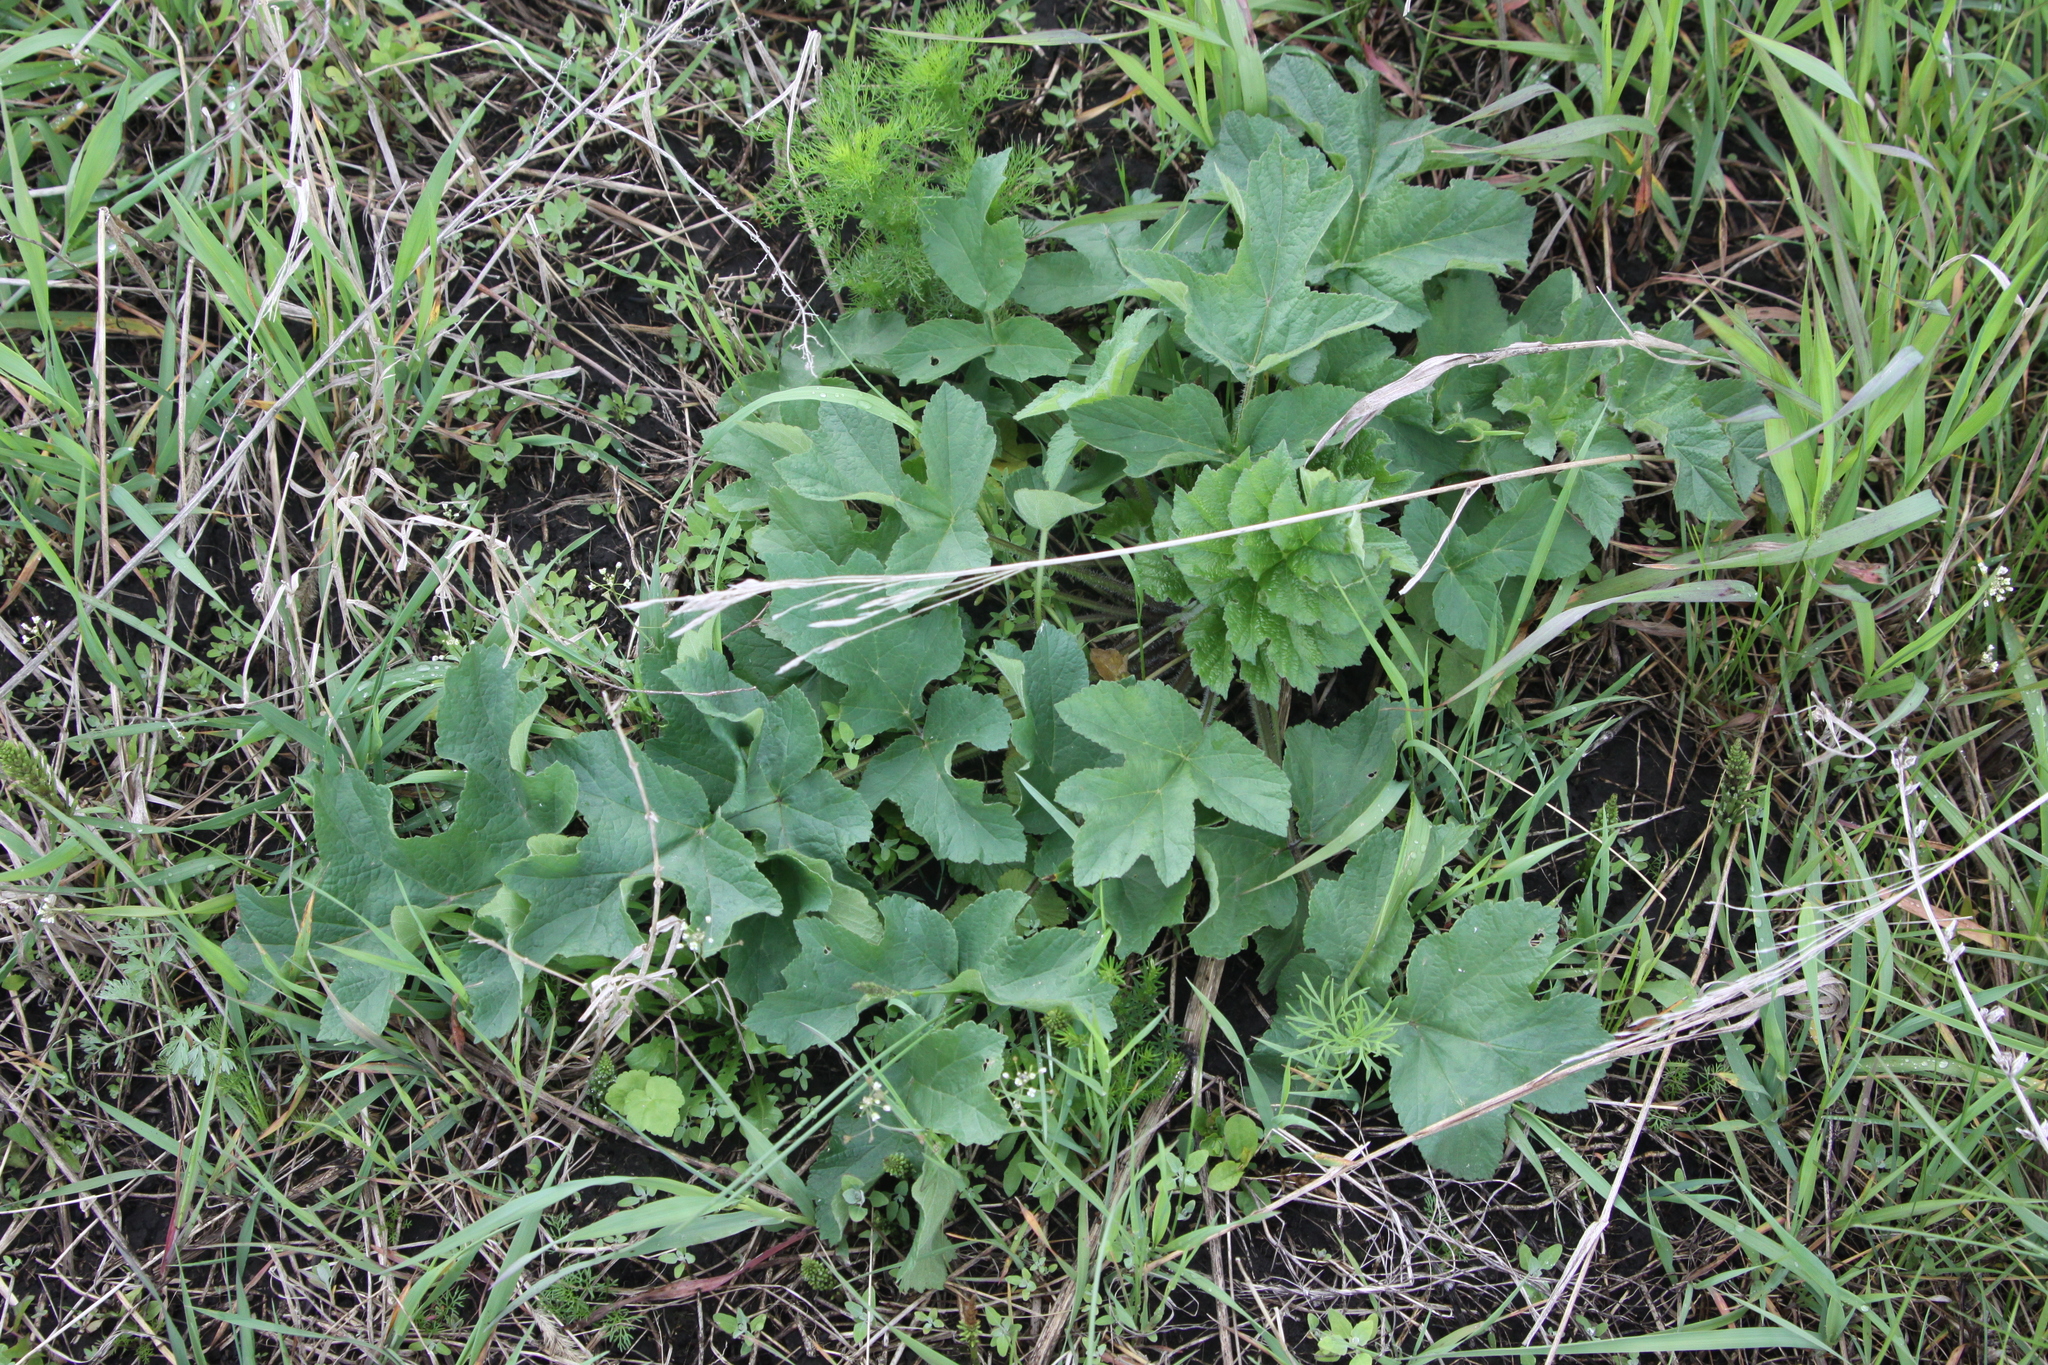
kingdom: Plantae
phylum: Tracheophyta
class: Magnoliopsida
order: Apiales
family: Apiaceae
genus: Heracleum
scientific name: Heracleum sphondylium
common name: Hogweed
